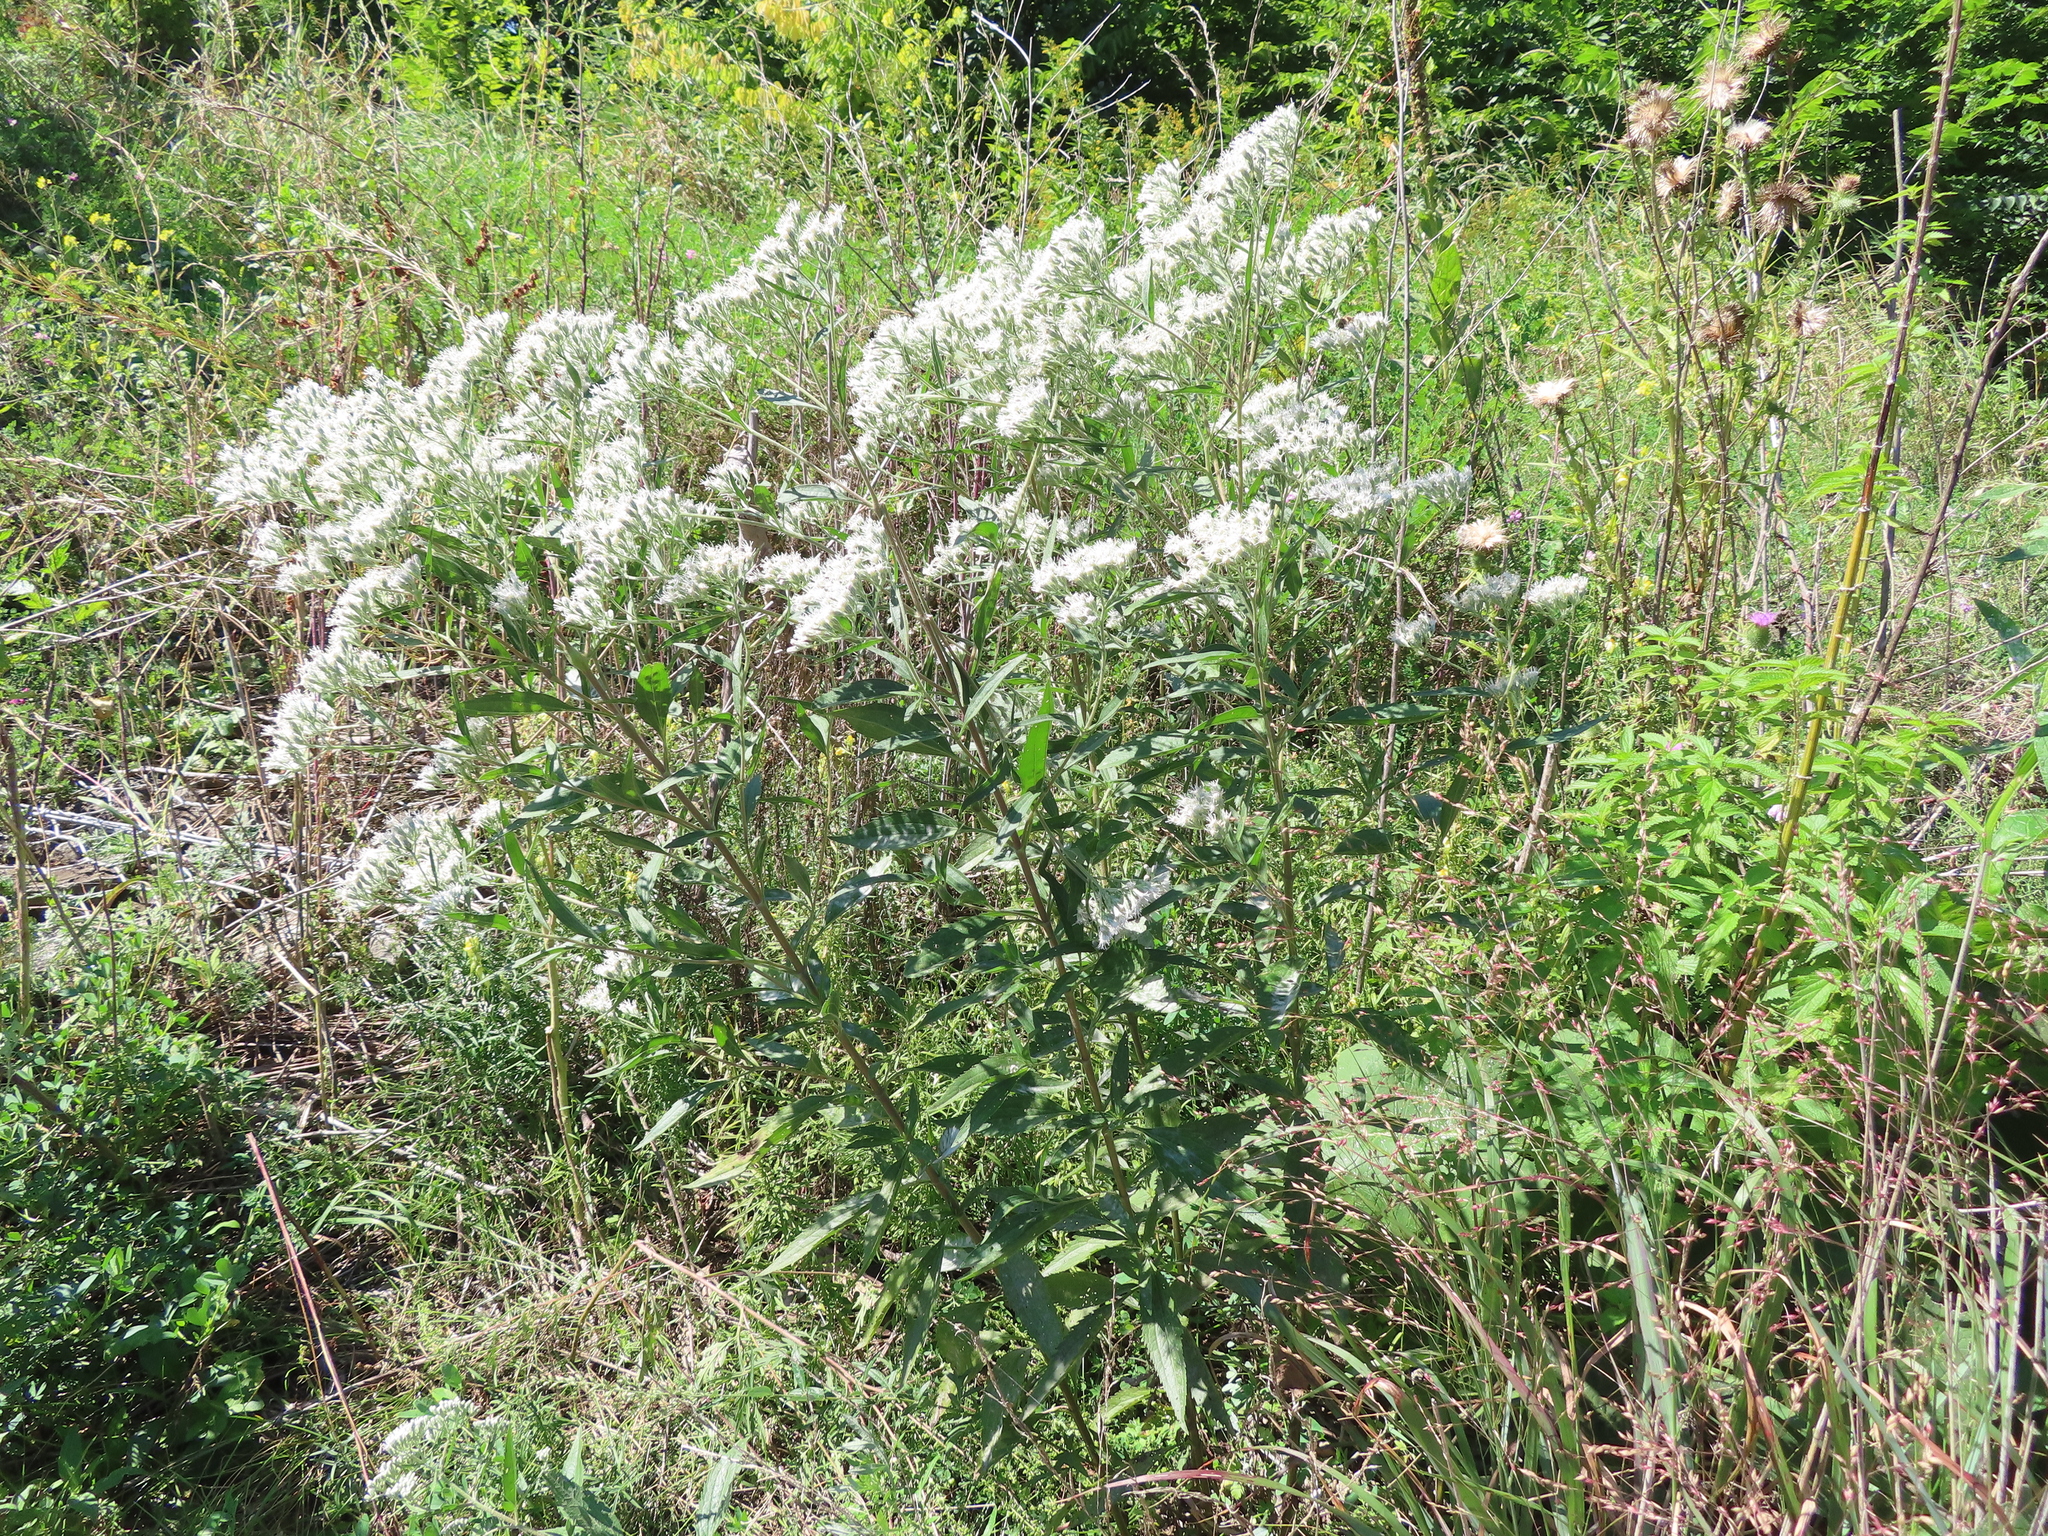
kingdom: Plantae
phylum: Tracheophyta
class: Magnoliopsida
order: Asterales
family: Asteraceae
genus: Eupatorium
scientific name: Eupatorium serotinum
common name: Late boneset
